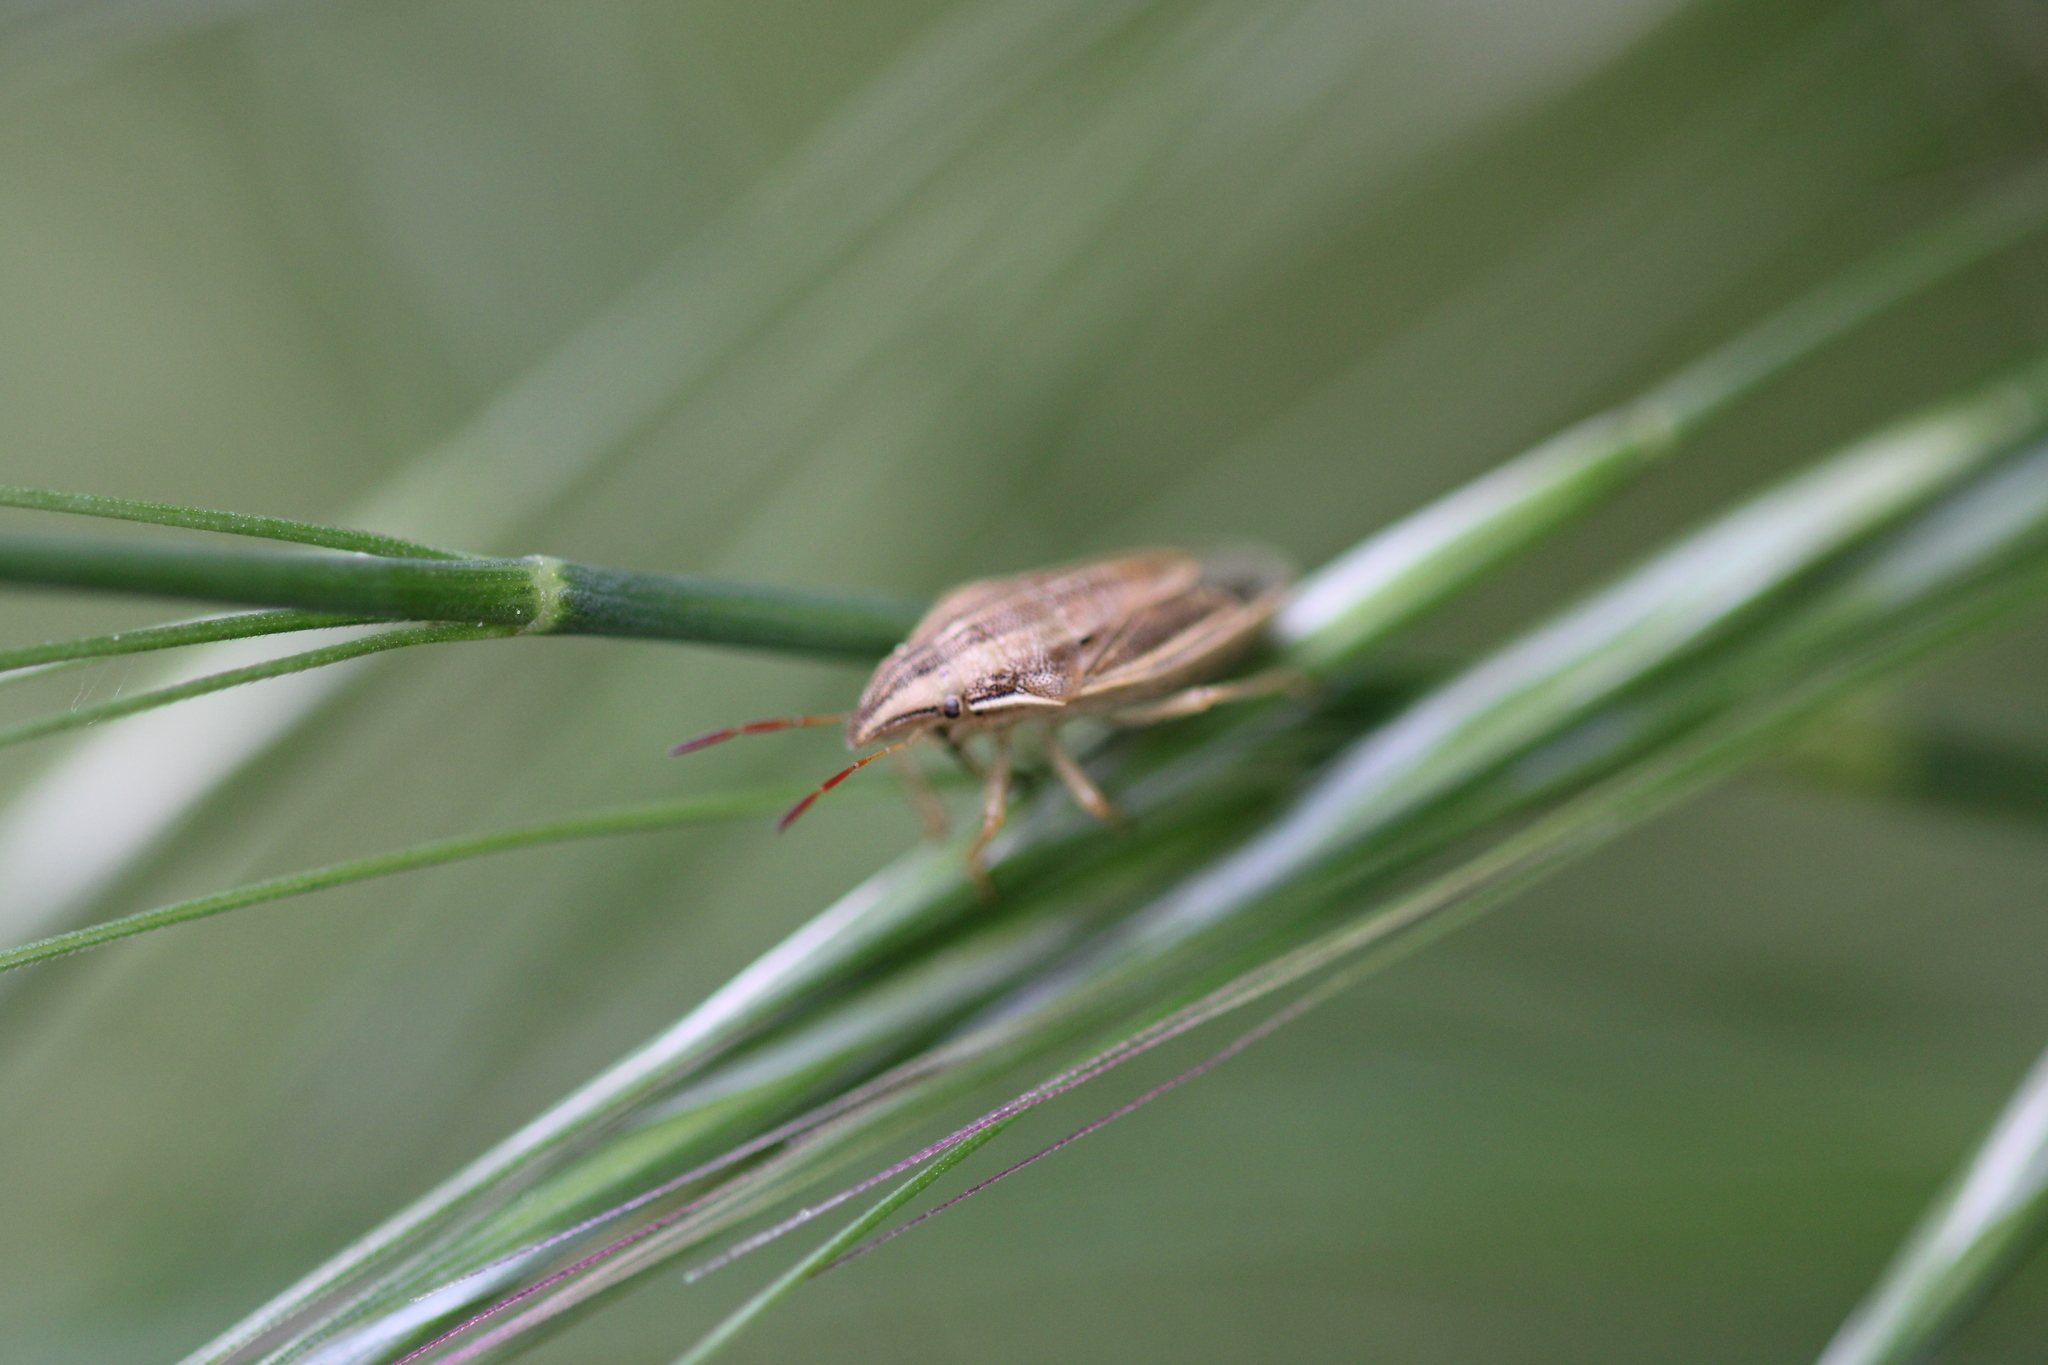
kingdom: Animalia
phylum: Arthropoda
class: Insecta
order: Hemiptera
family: Pentatomidae
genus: Aelia
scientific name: Aelia acuminata
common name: Bishop's mitre
